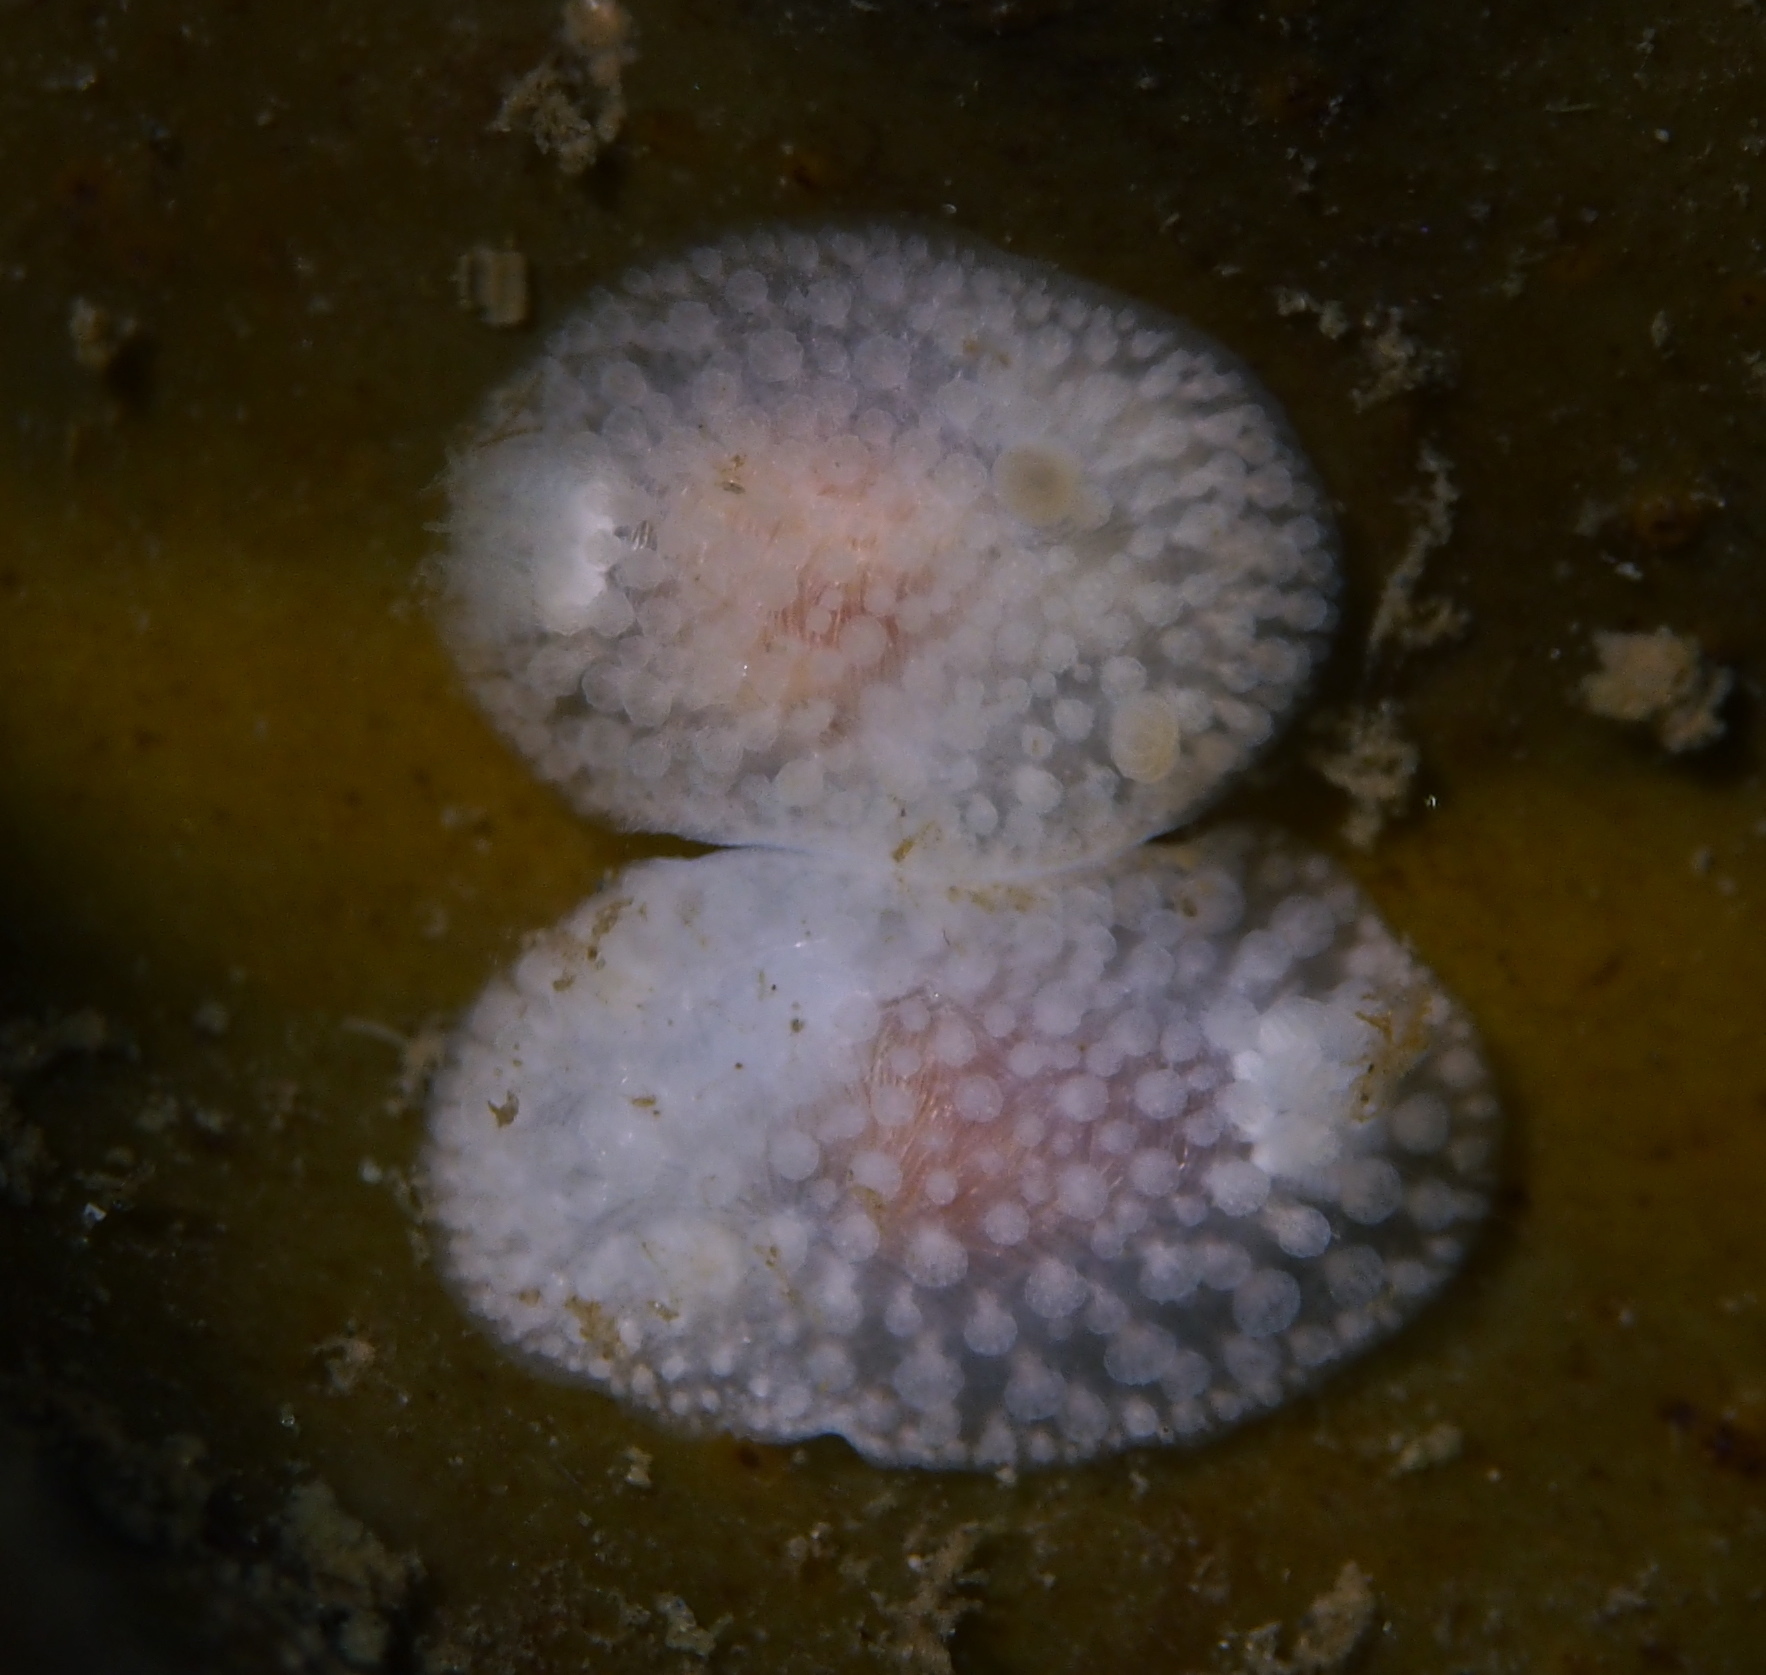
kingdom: Animalia
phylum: Mollusca
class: Gastropoda
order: Nudibranchia
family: Onchidorididae
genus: Onchidoris
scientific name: Onchidoris muricata
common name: Rough doris
